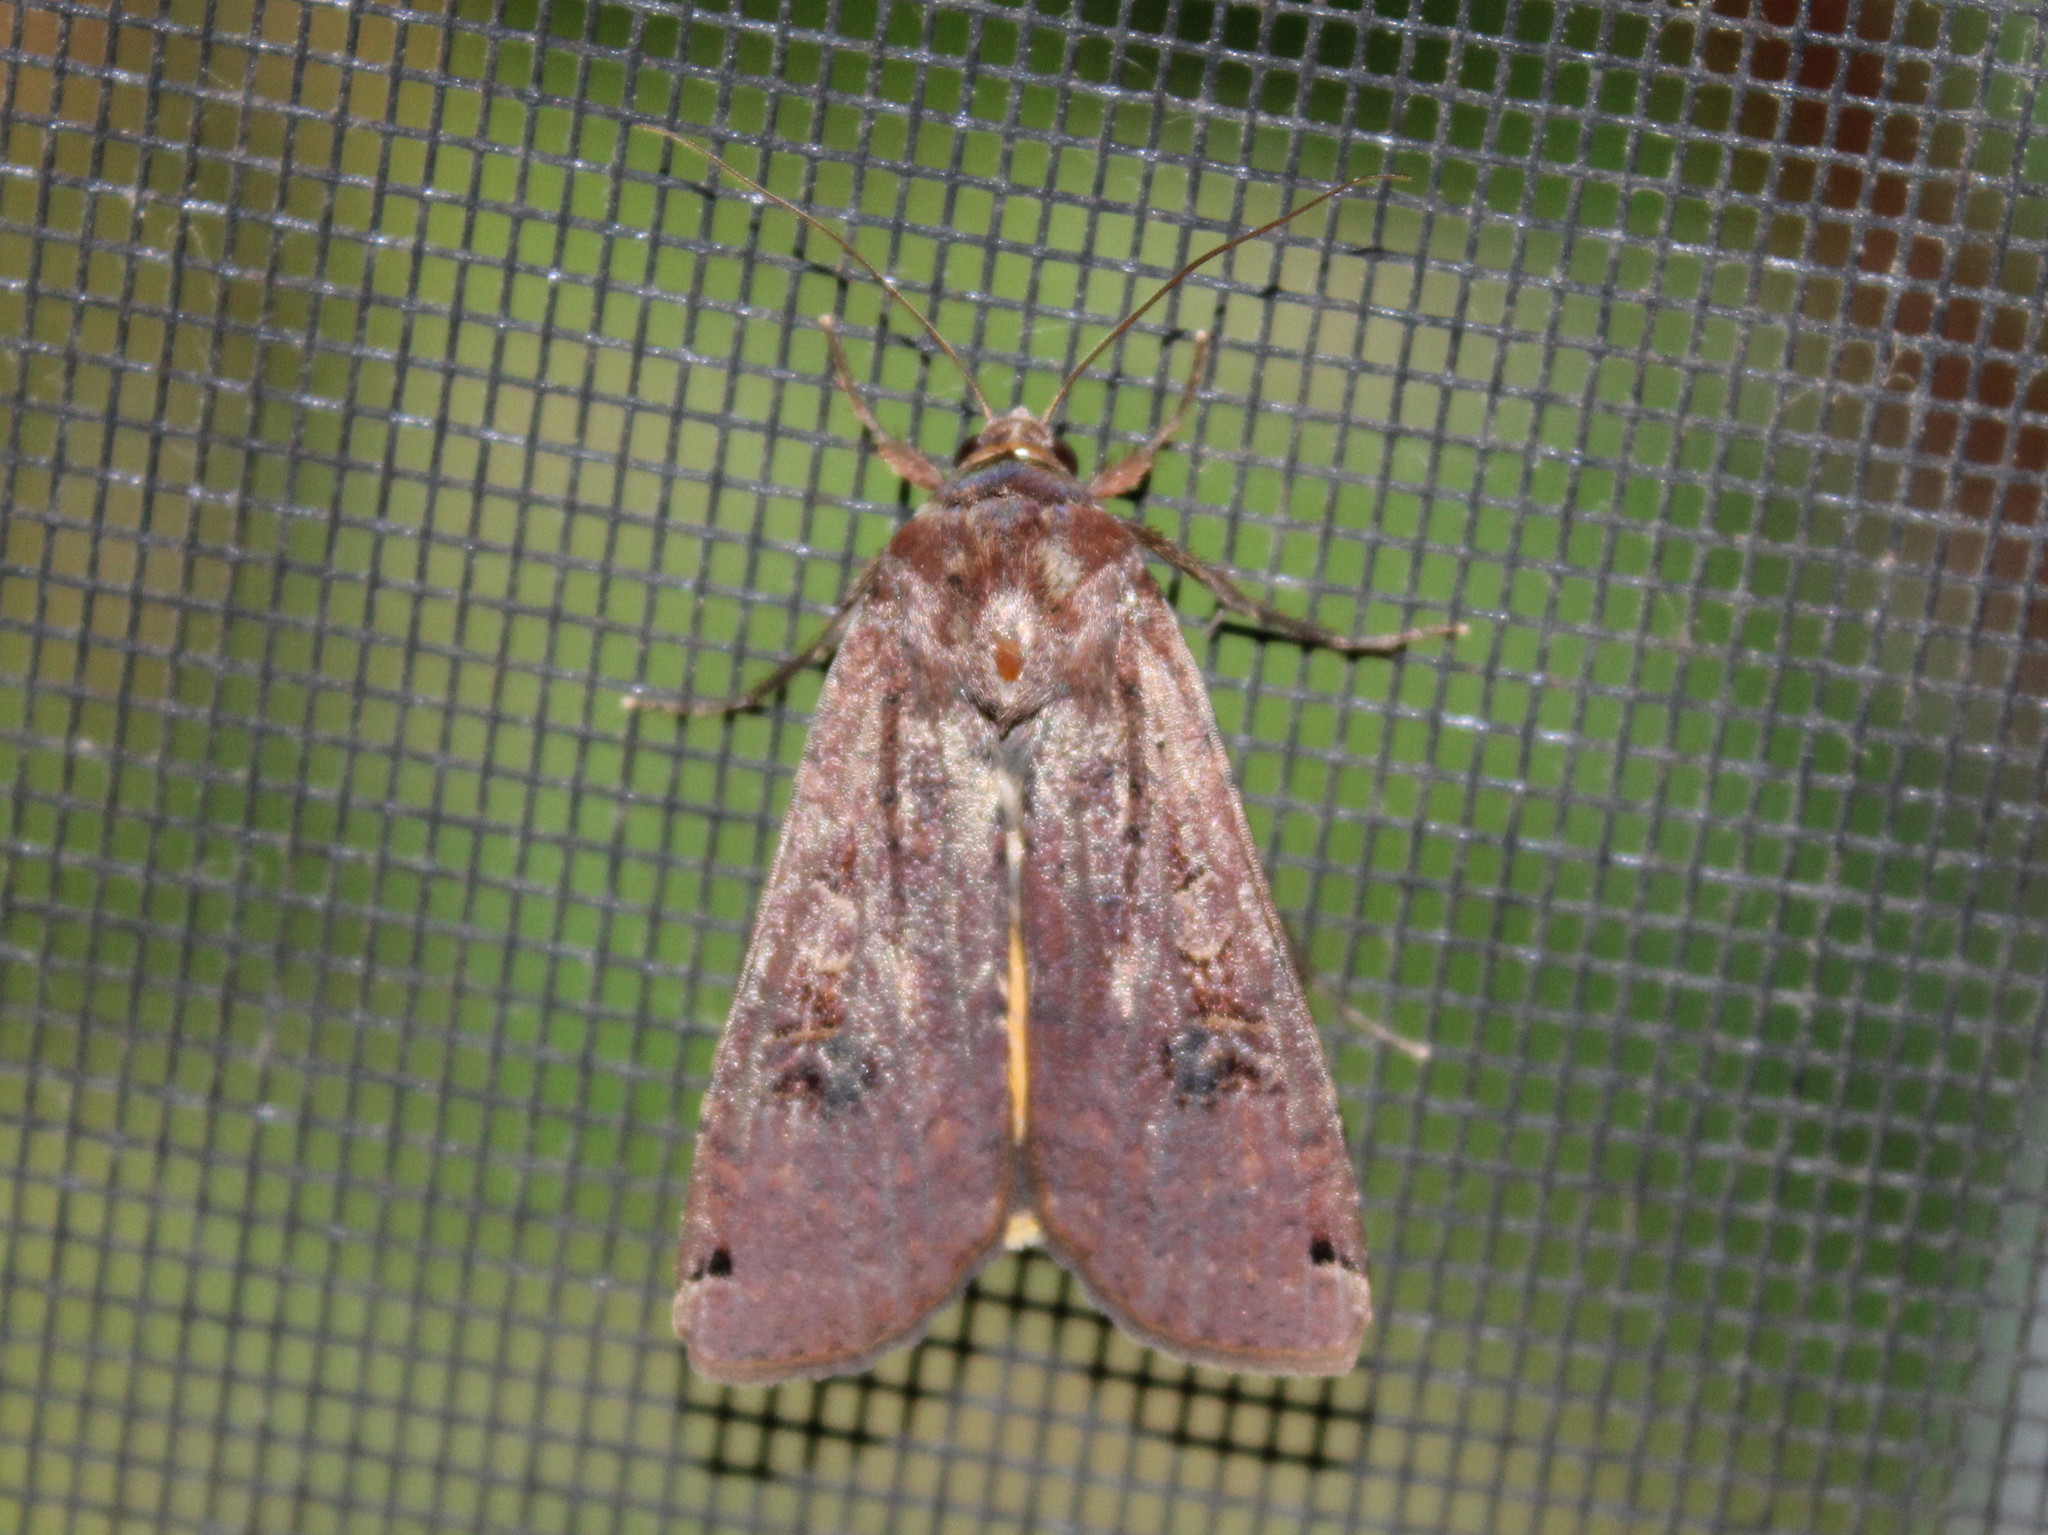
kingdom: Animalia
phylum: Arthropoda
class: Insecta
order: Lepidoptera
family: Noctuidae
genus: Noctua
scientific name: Noctua pronuba
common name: Large yellow underwing
